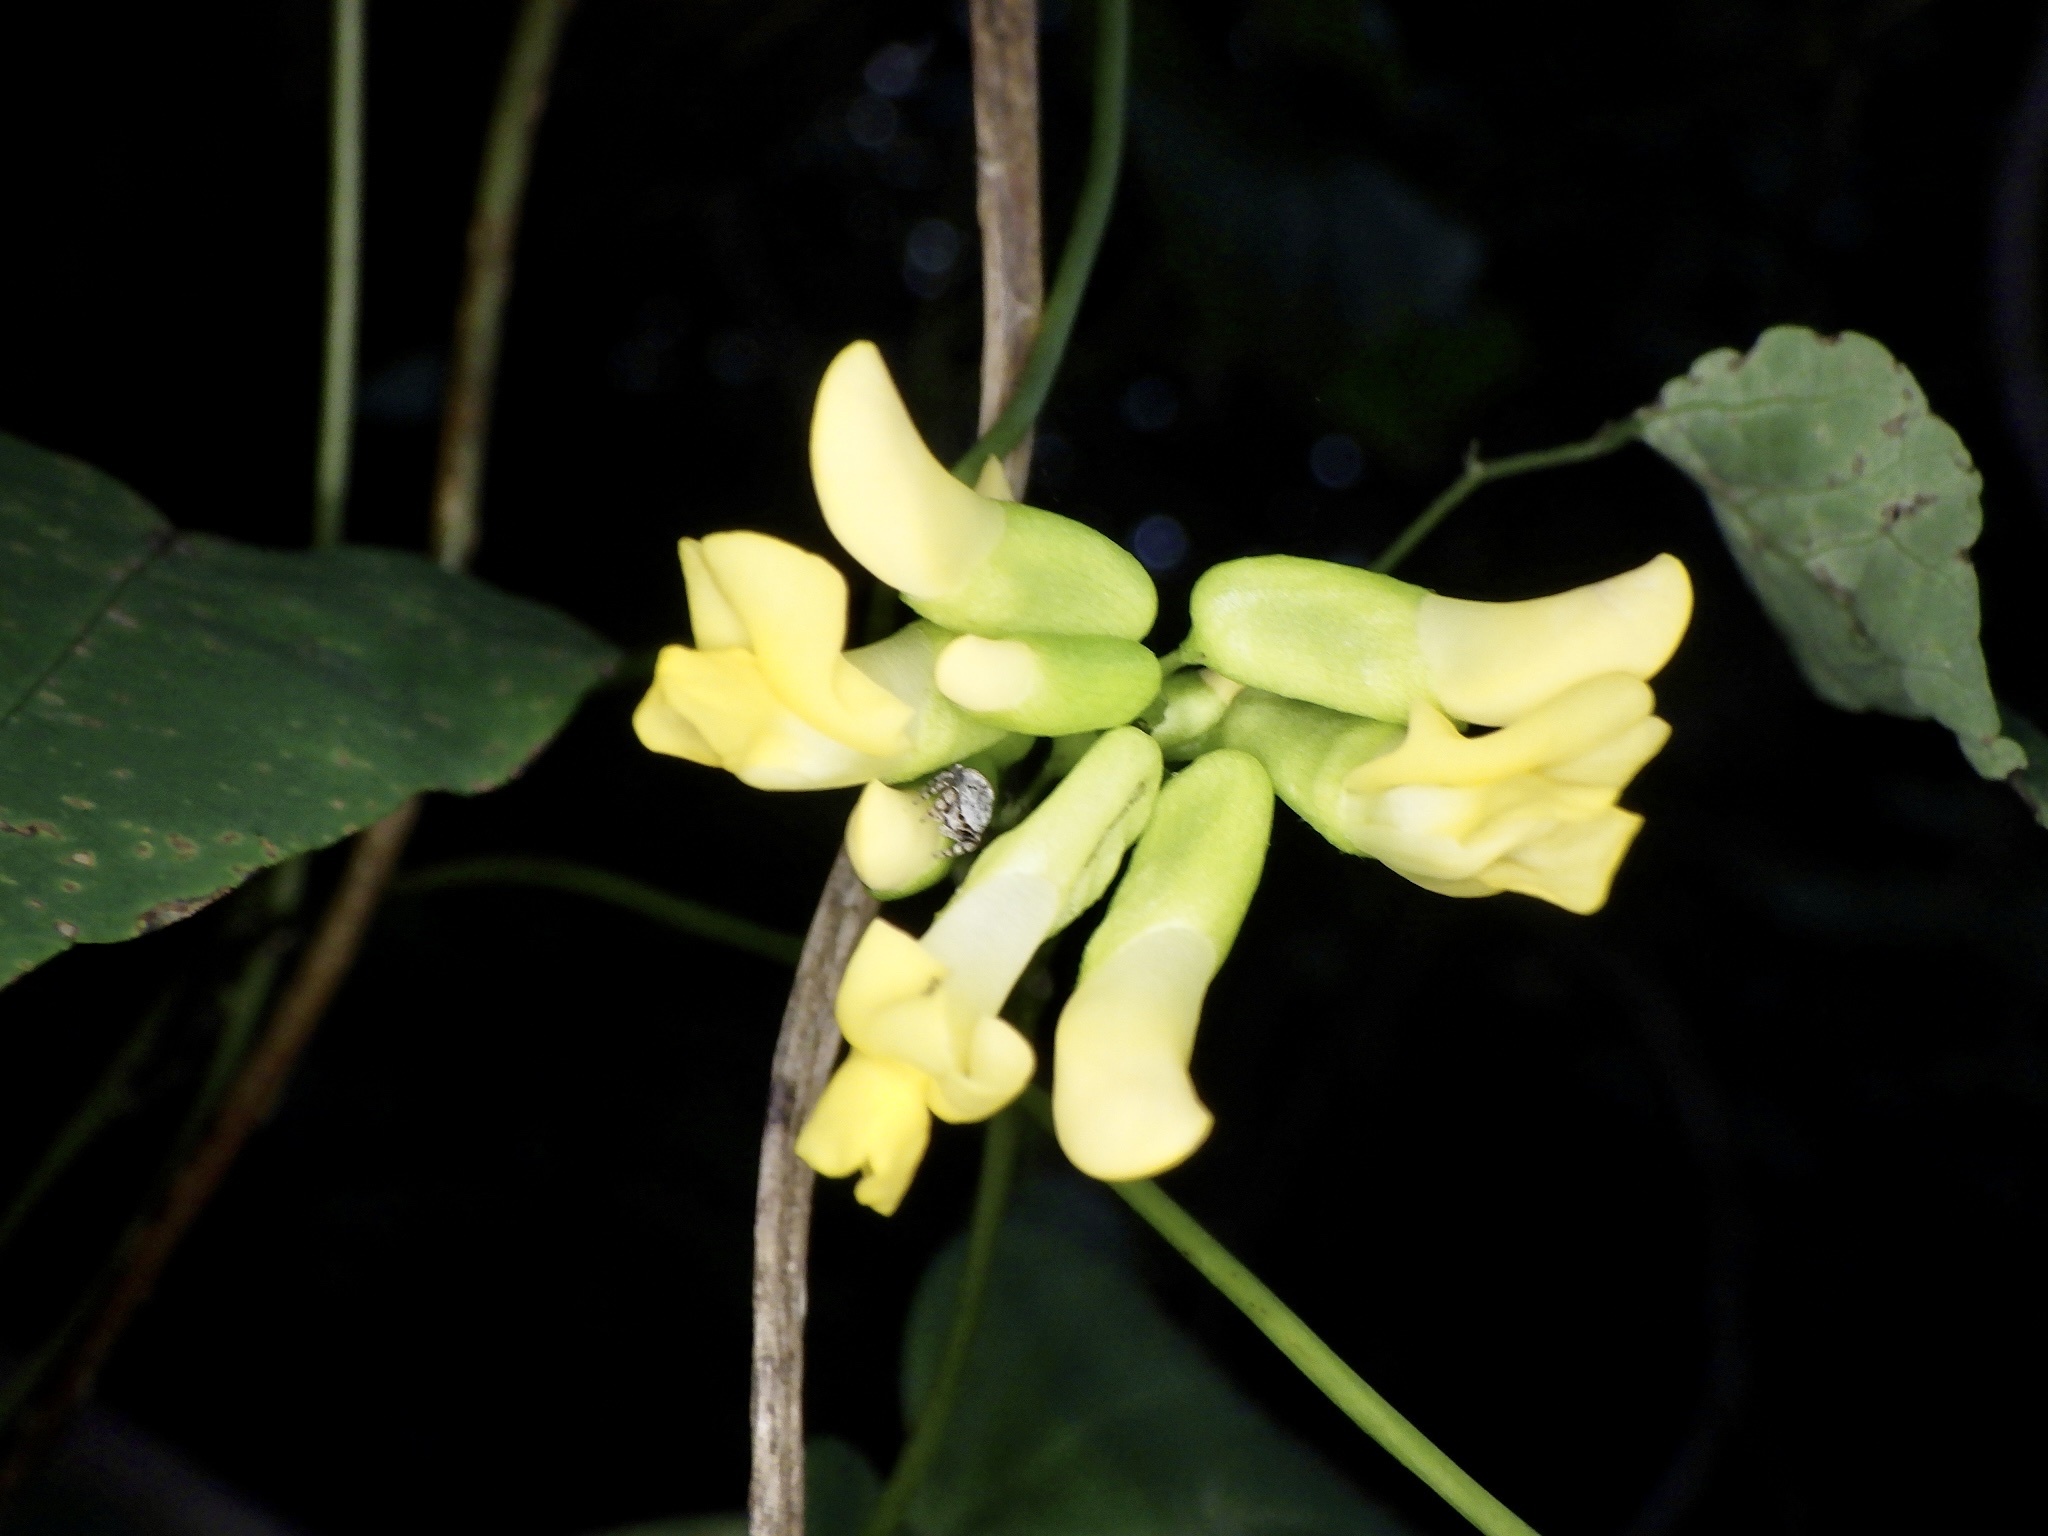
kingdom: Plantae
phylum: Tracheophyta
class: Magnoliopsida
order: Fabales
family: Fabaceae
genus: Dumasia
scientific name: Dumasia truncata
